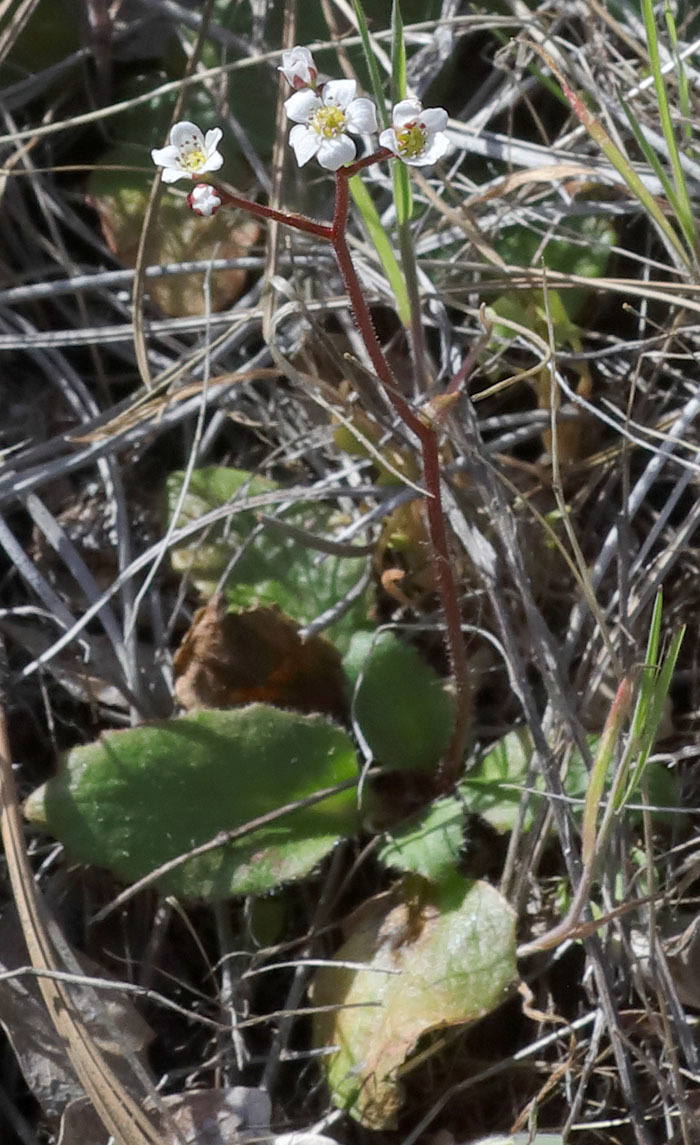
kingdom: Plantae
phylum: Tracheophyta
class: Magnoliopsida
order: Saxifragales
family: Saxifragaceae
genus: Micranthes
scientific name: Micranthes californica
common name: California saxifrage
